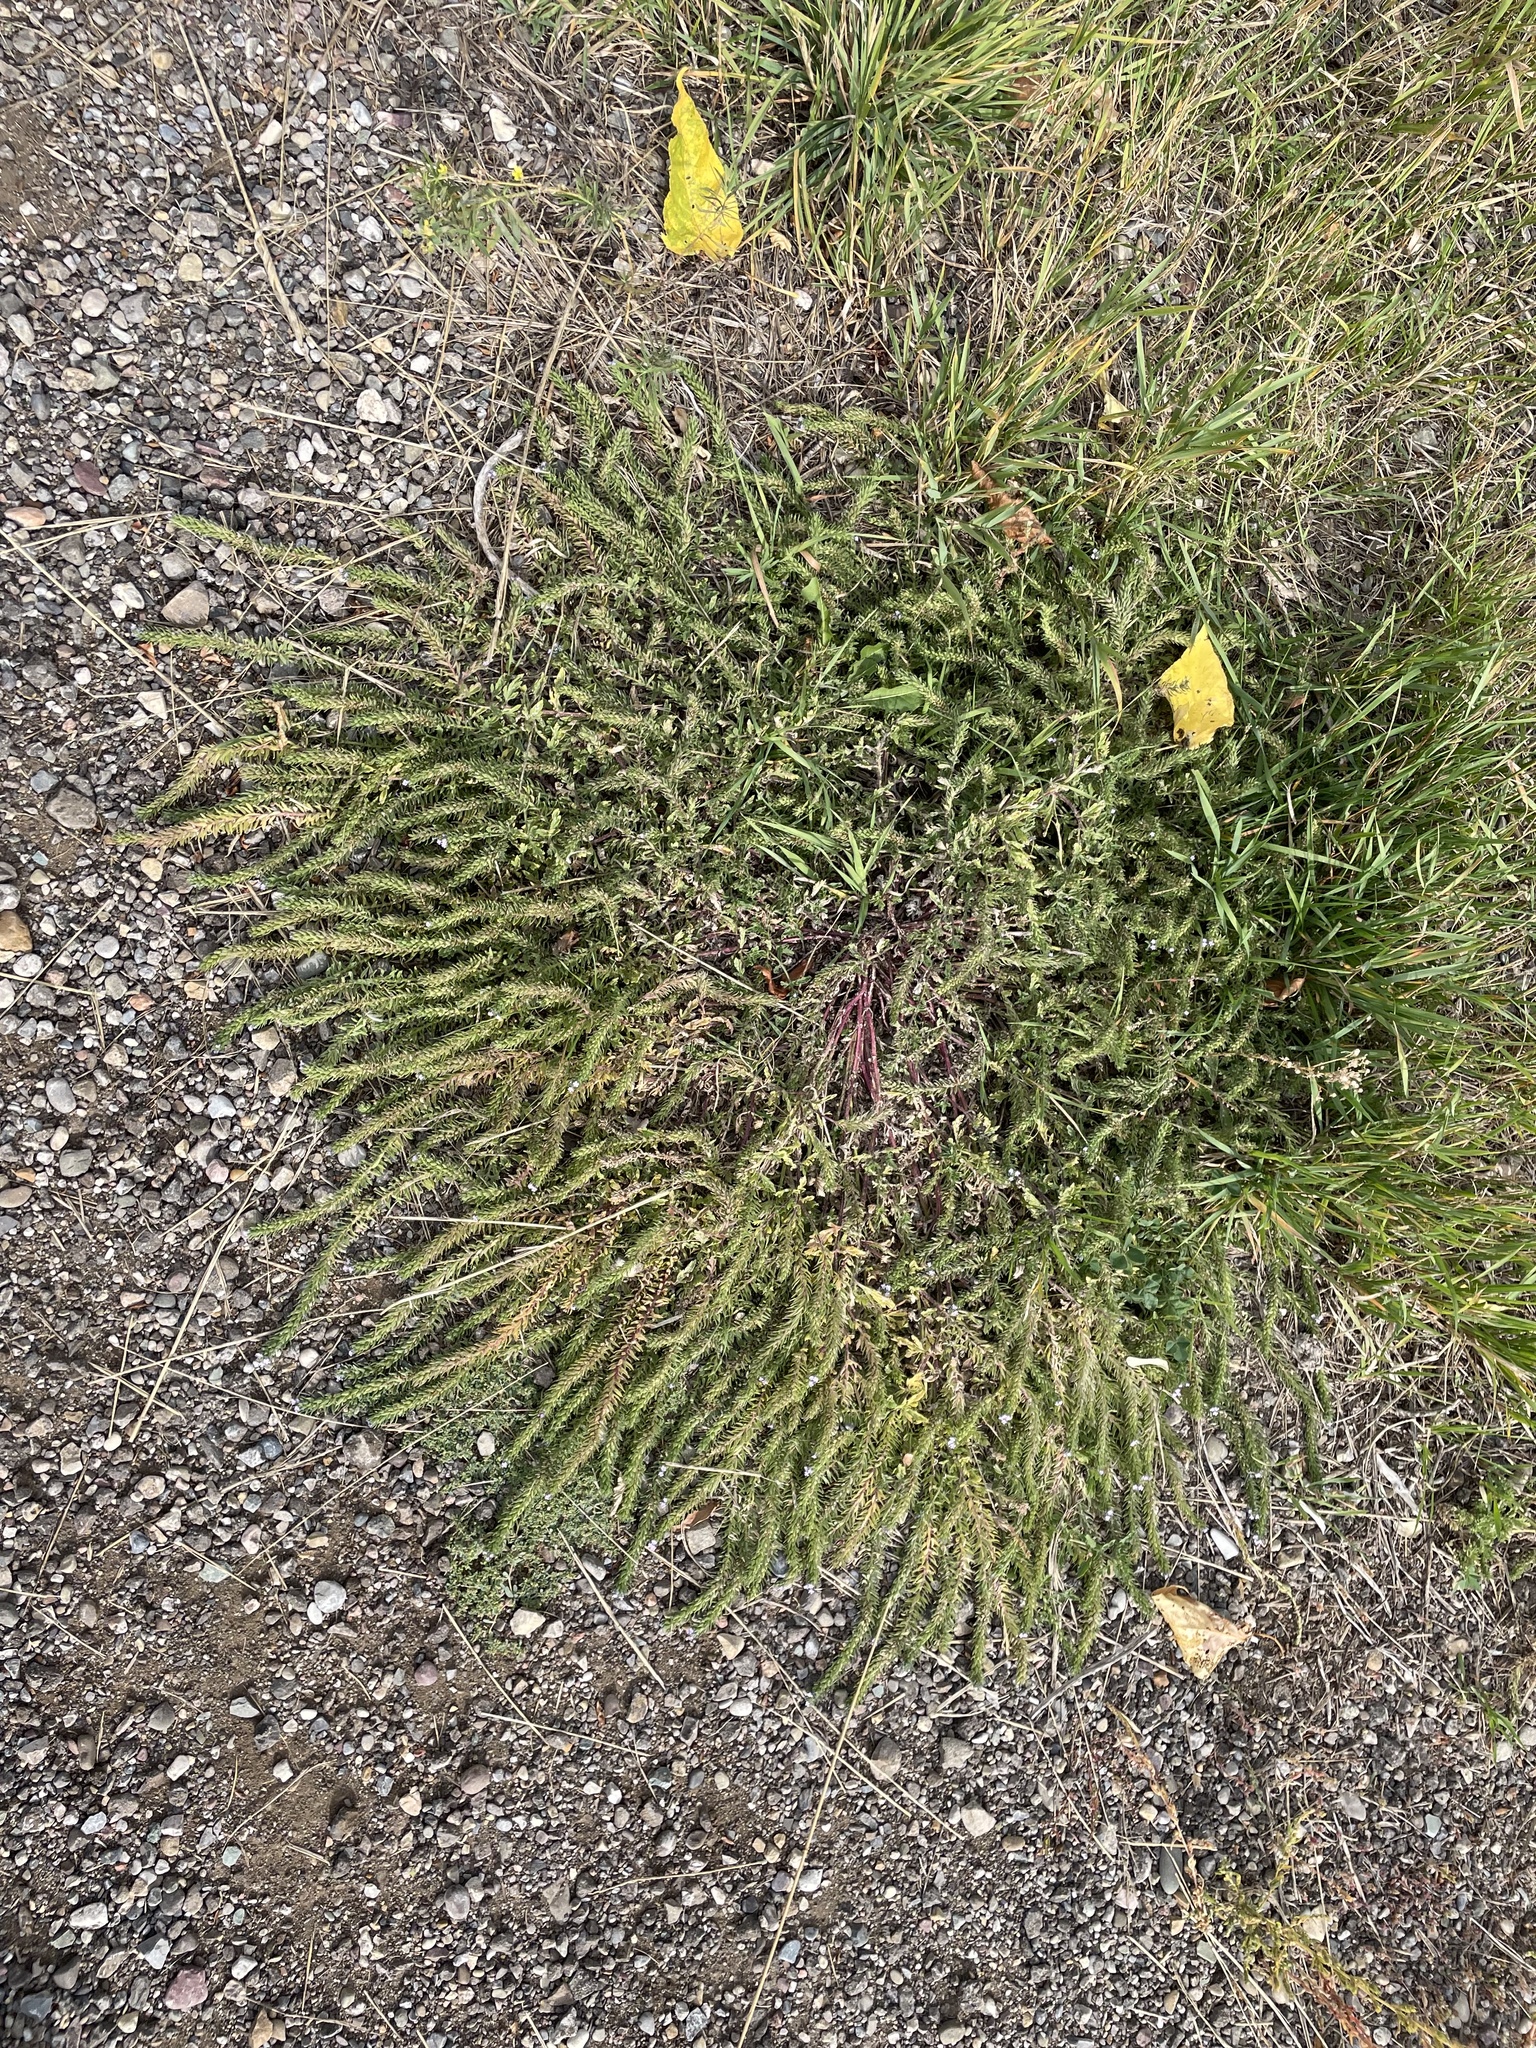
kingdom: Plantae
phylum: Tracheophyta
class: Magnoliopsida
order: Lamiales
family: Verbenaceae
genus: Verbena
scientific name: Verbena bracteata
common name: Bracted vervain
